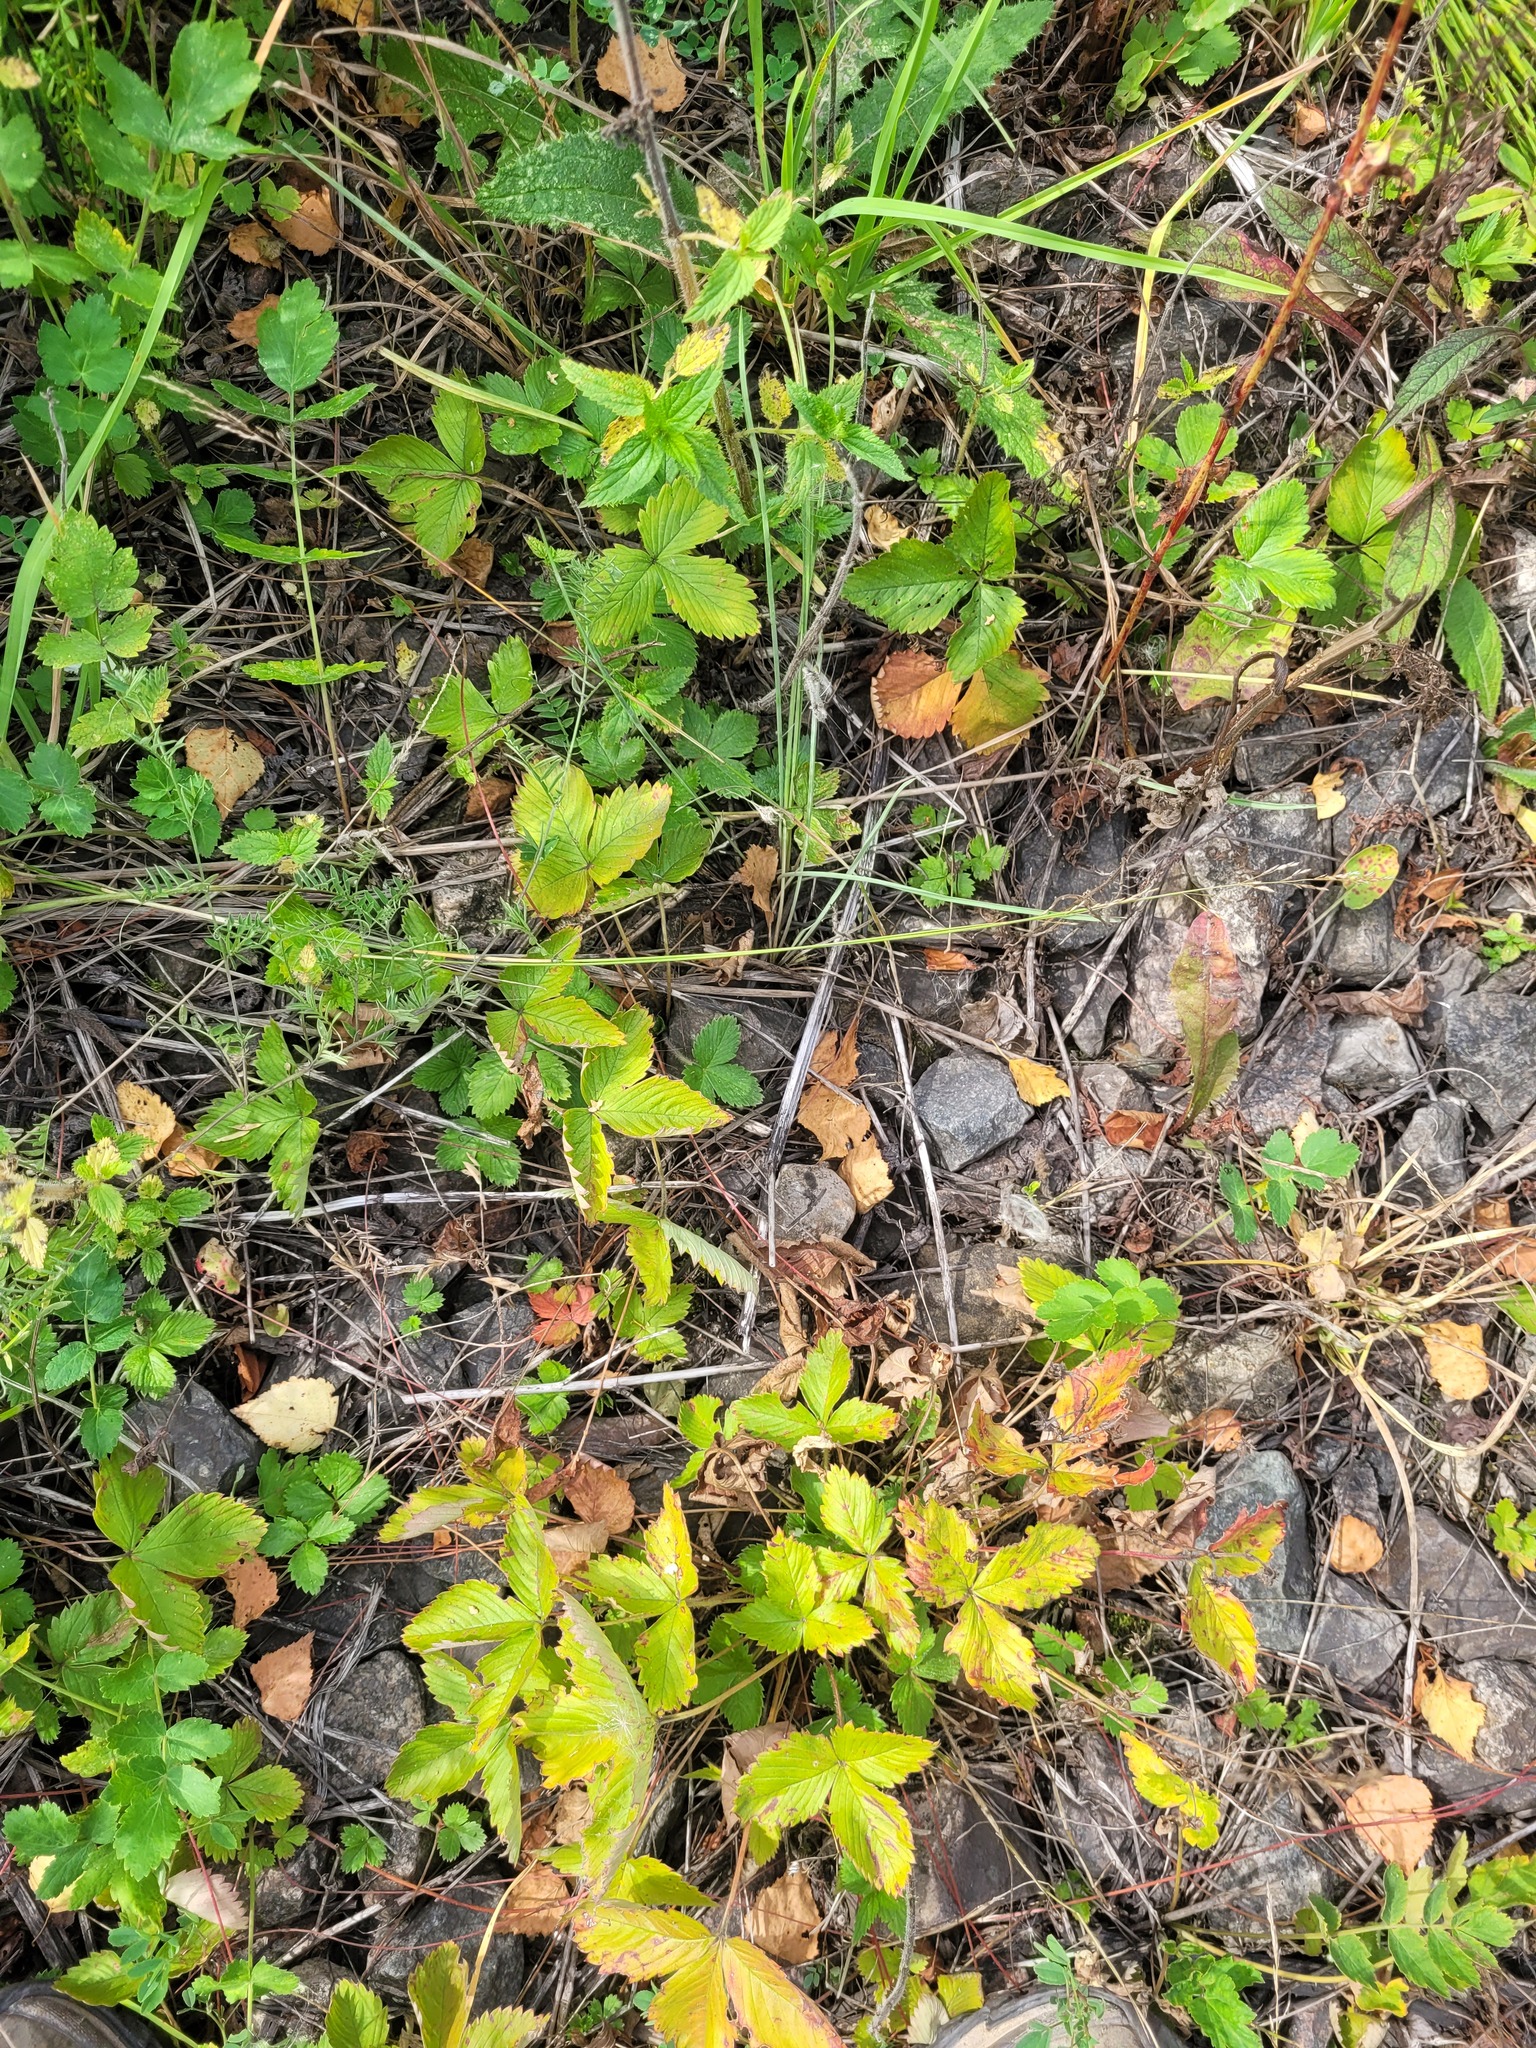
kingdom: Plantae
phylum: Tracheophyta
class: Magnoliopsida
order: Rosales
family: Rosaceae
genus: Fragaria
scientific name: Fragaria vesca
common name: Wild strawberry
